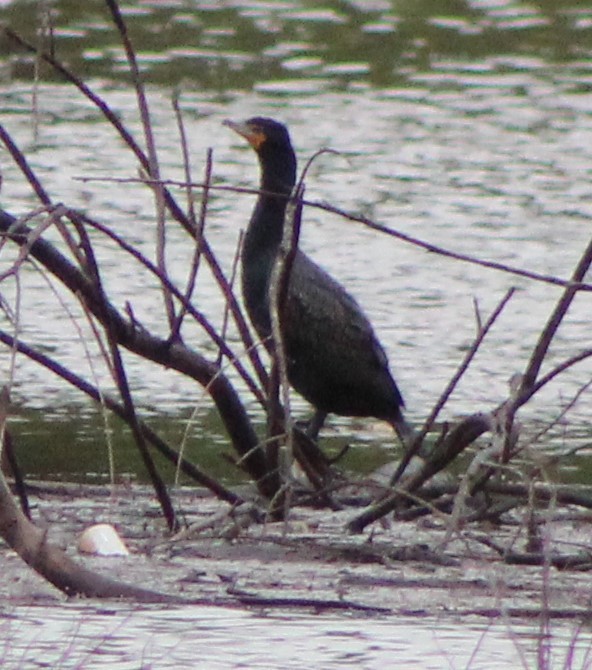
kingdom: Animalia
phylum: Chordata
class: Aves
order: Suliformes
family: Phalacrocoracidae
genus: Phalacrocorax
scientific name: Phalacrocorax auritus
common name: Double-crested cormorant
